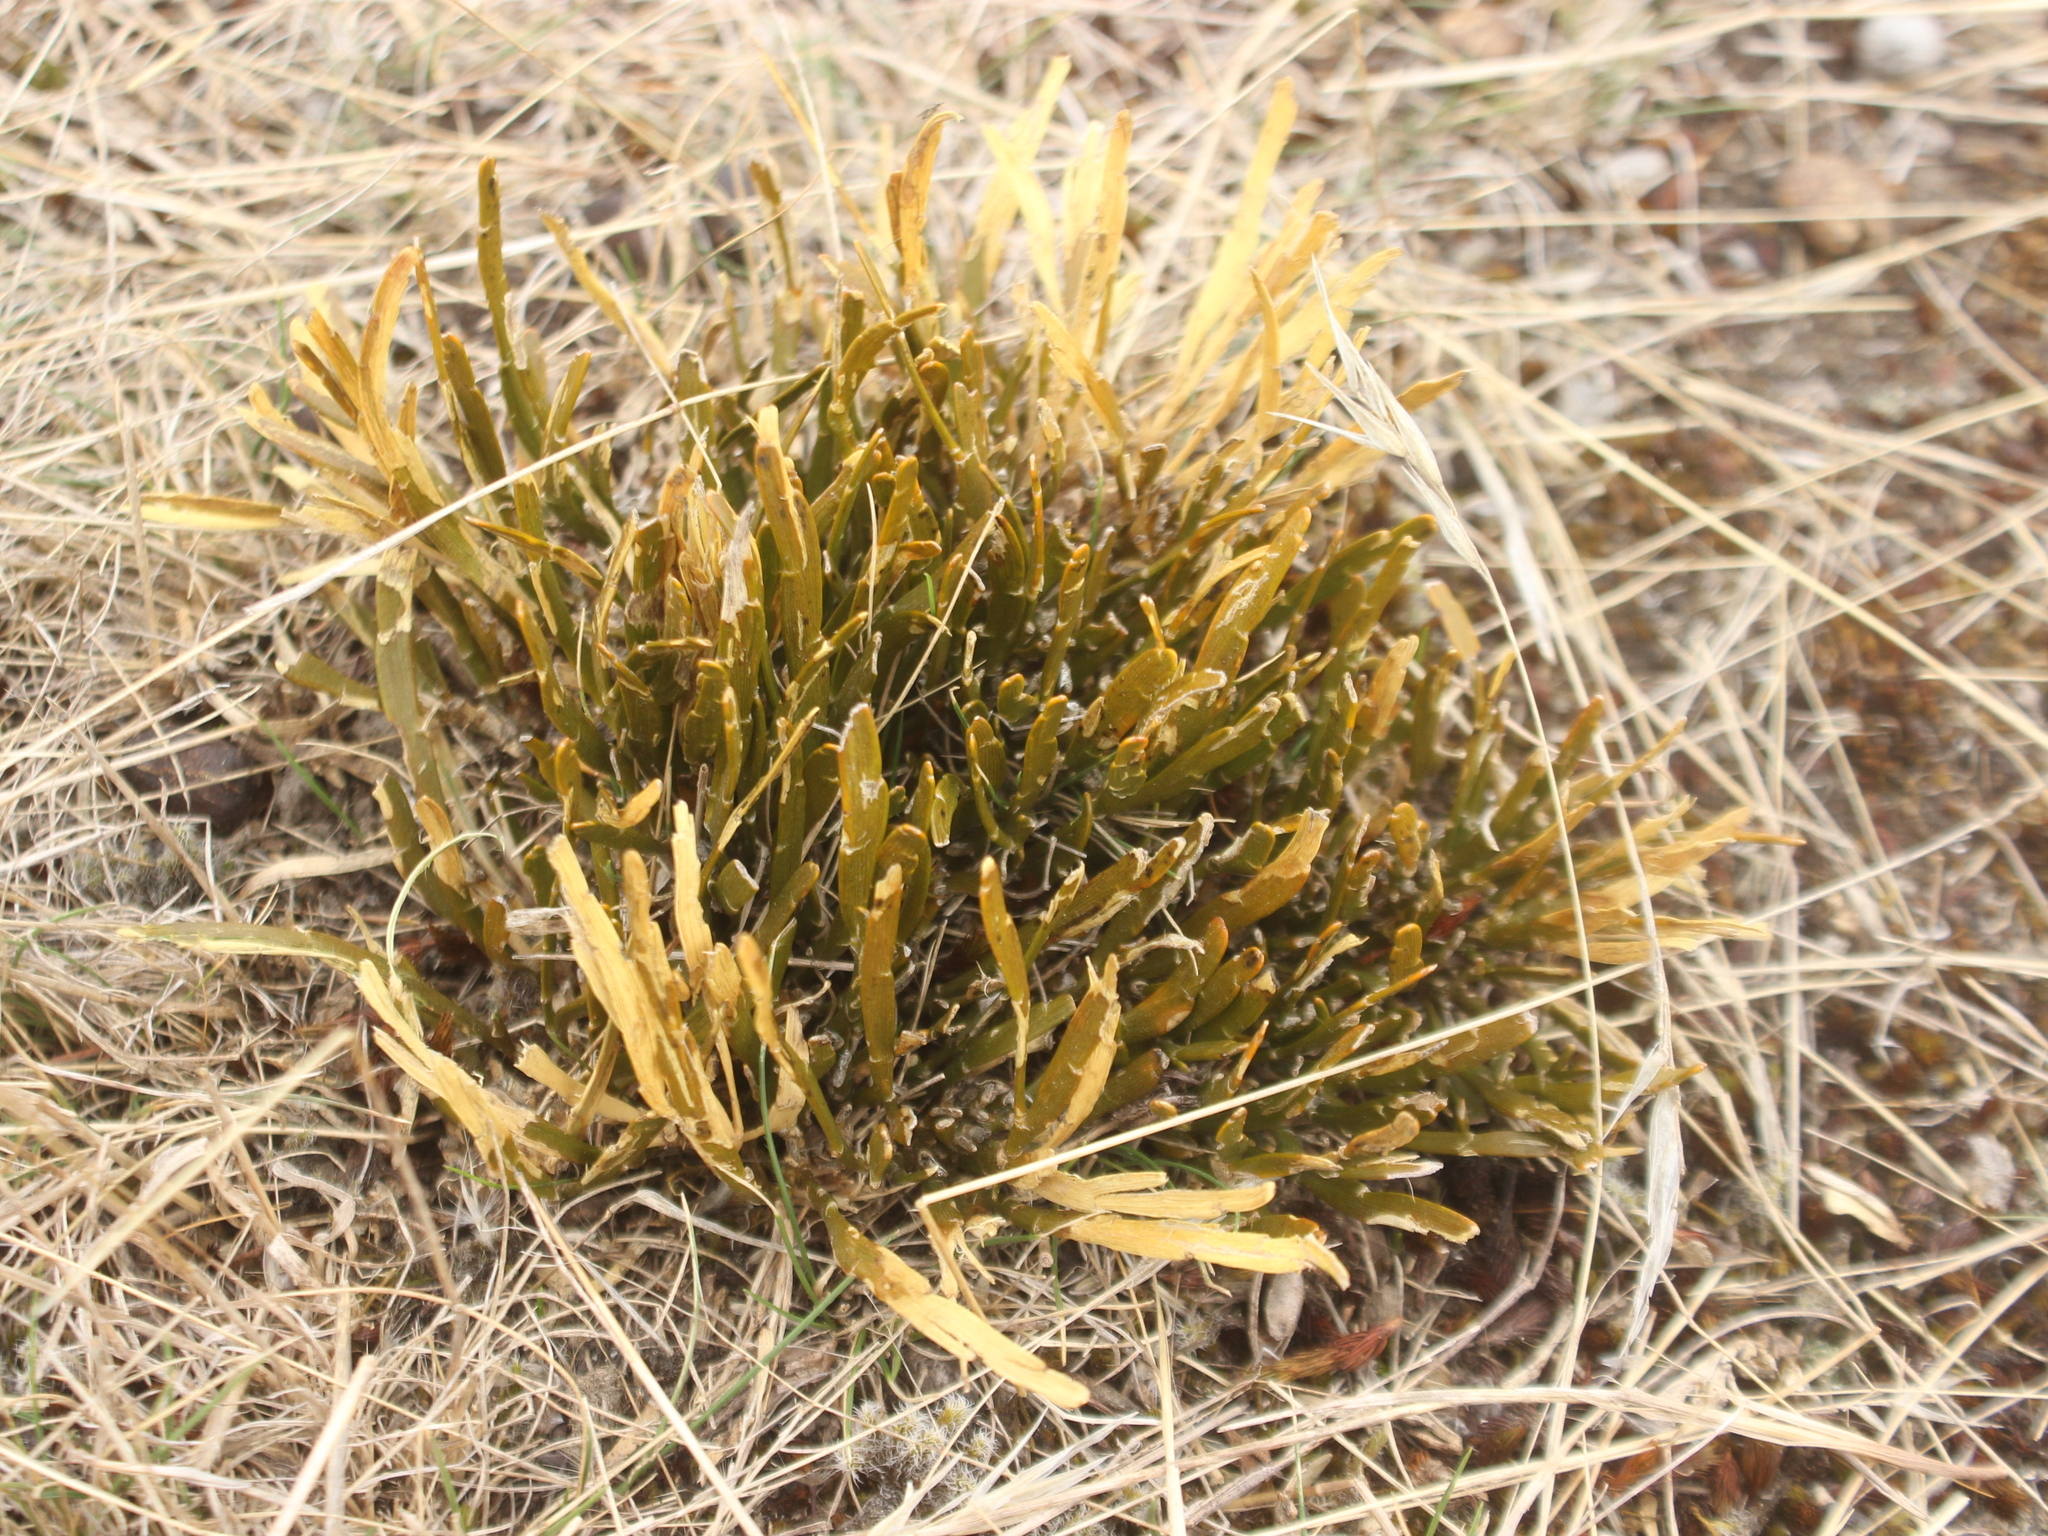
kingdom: Plantae
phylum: Tracheophyta
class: Magnoliopsida
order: Fabales
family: Fabaceae
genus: Carmichaelia
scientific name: Carmichaelia corrugata
